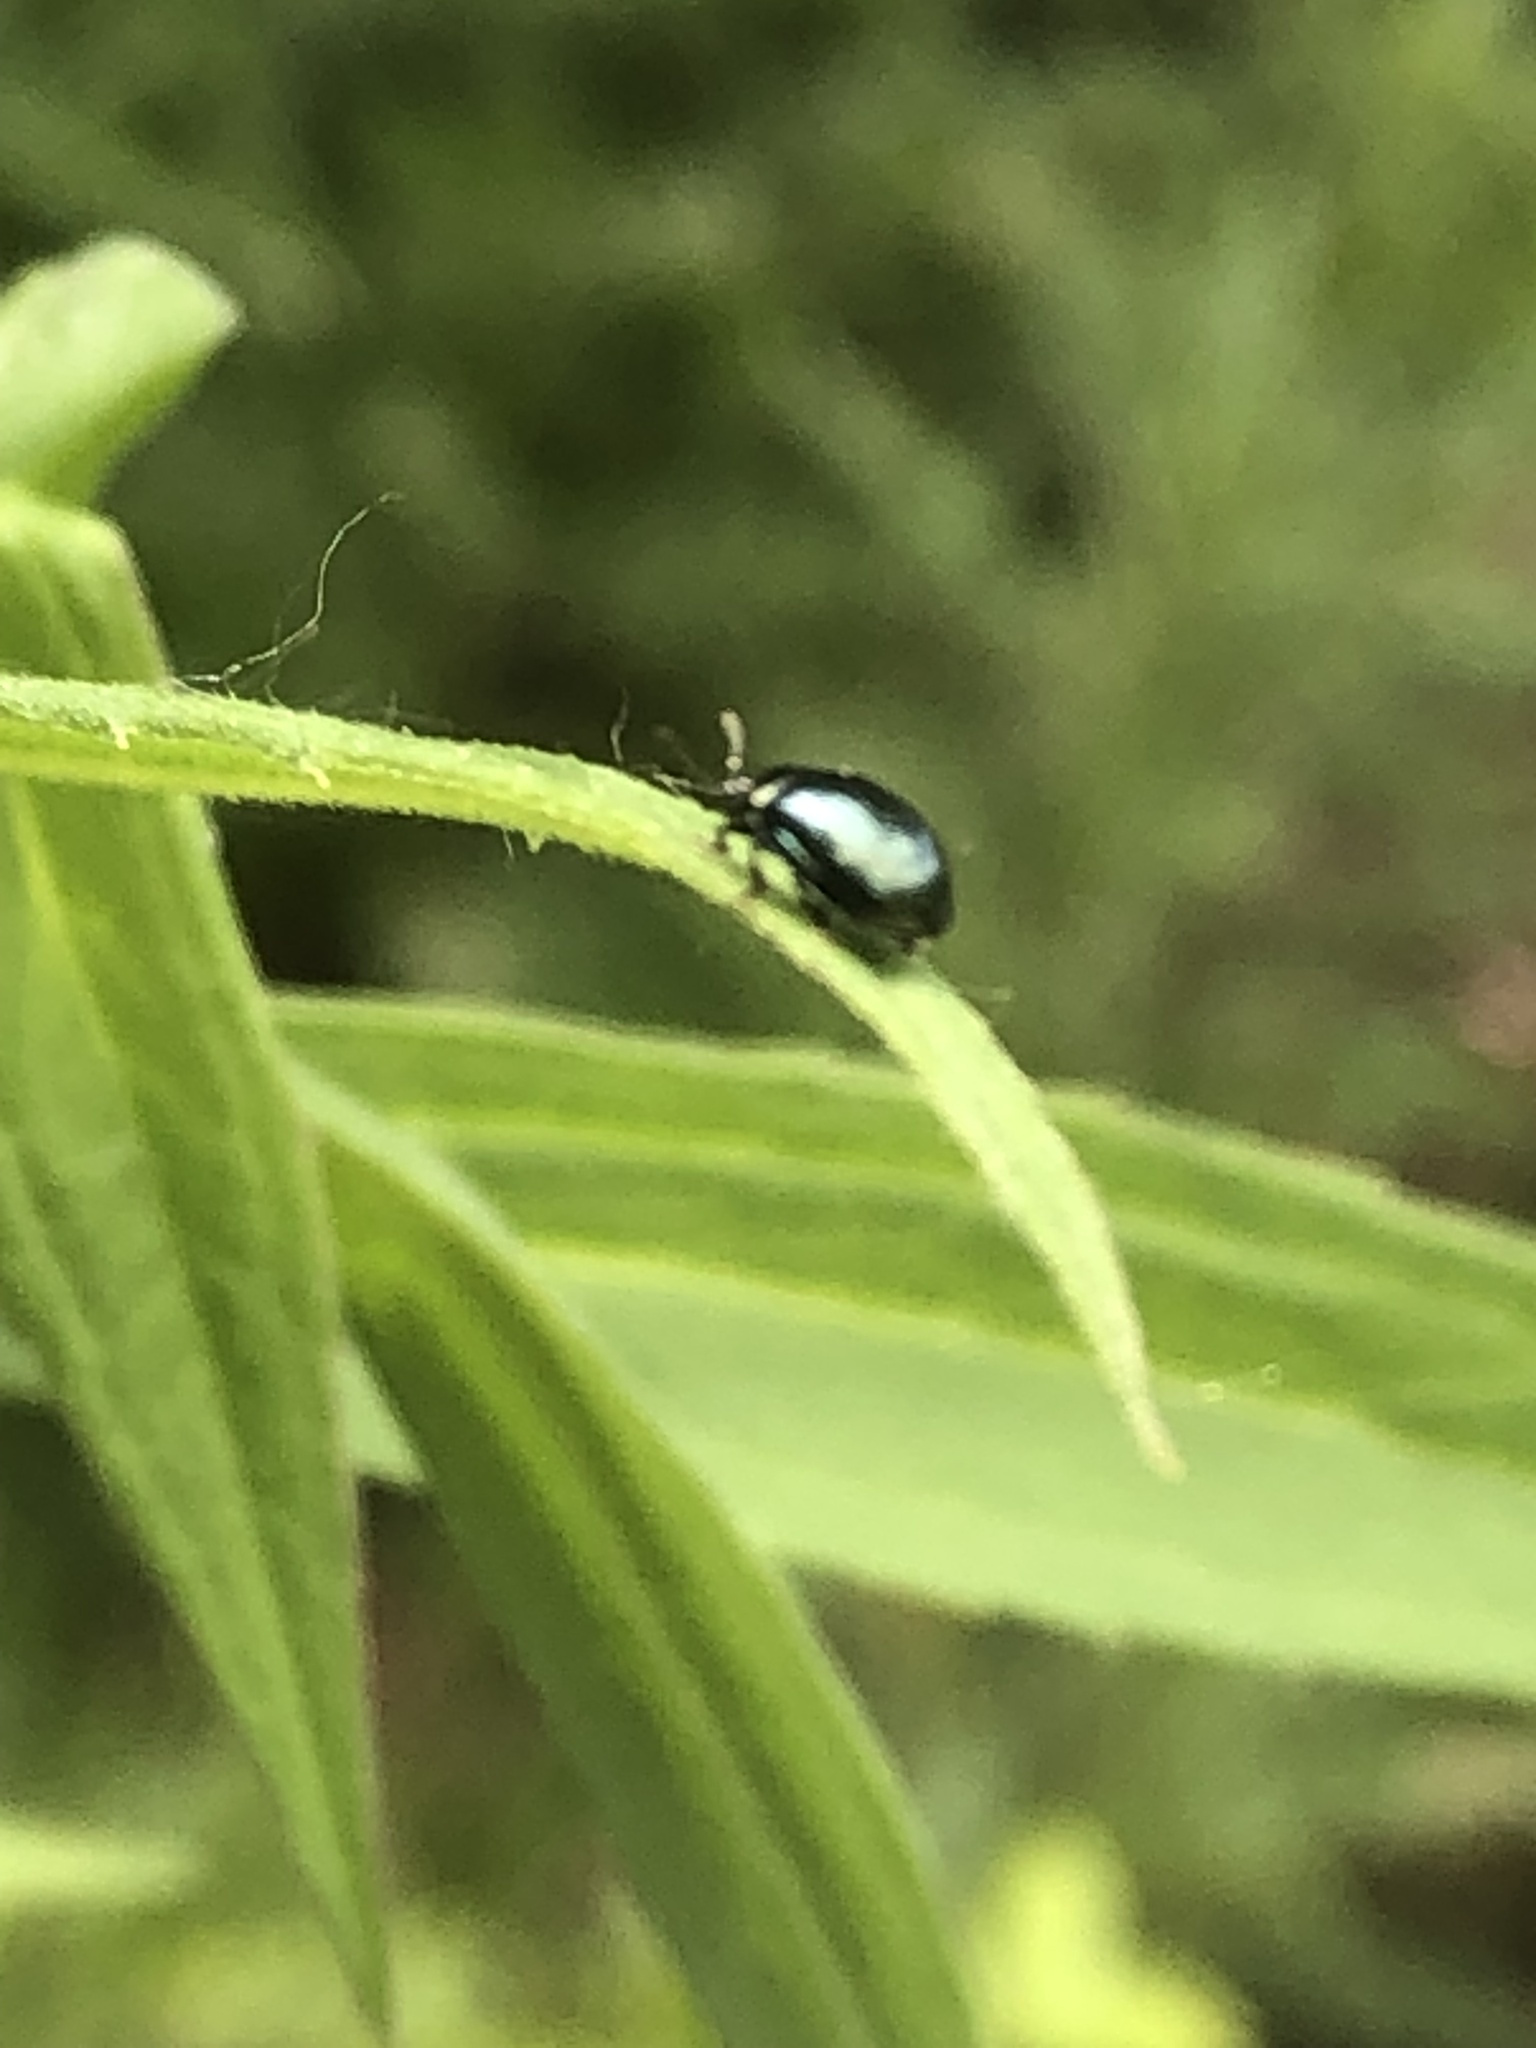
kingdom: Animalia
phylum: Arthropoda
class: Insecta
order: Coleoptera
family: Chrysomelidae
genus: Plagiodera
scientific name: Plagiodera versicolora
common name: Imported willow leaf beetle
